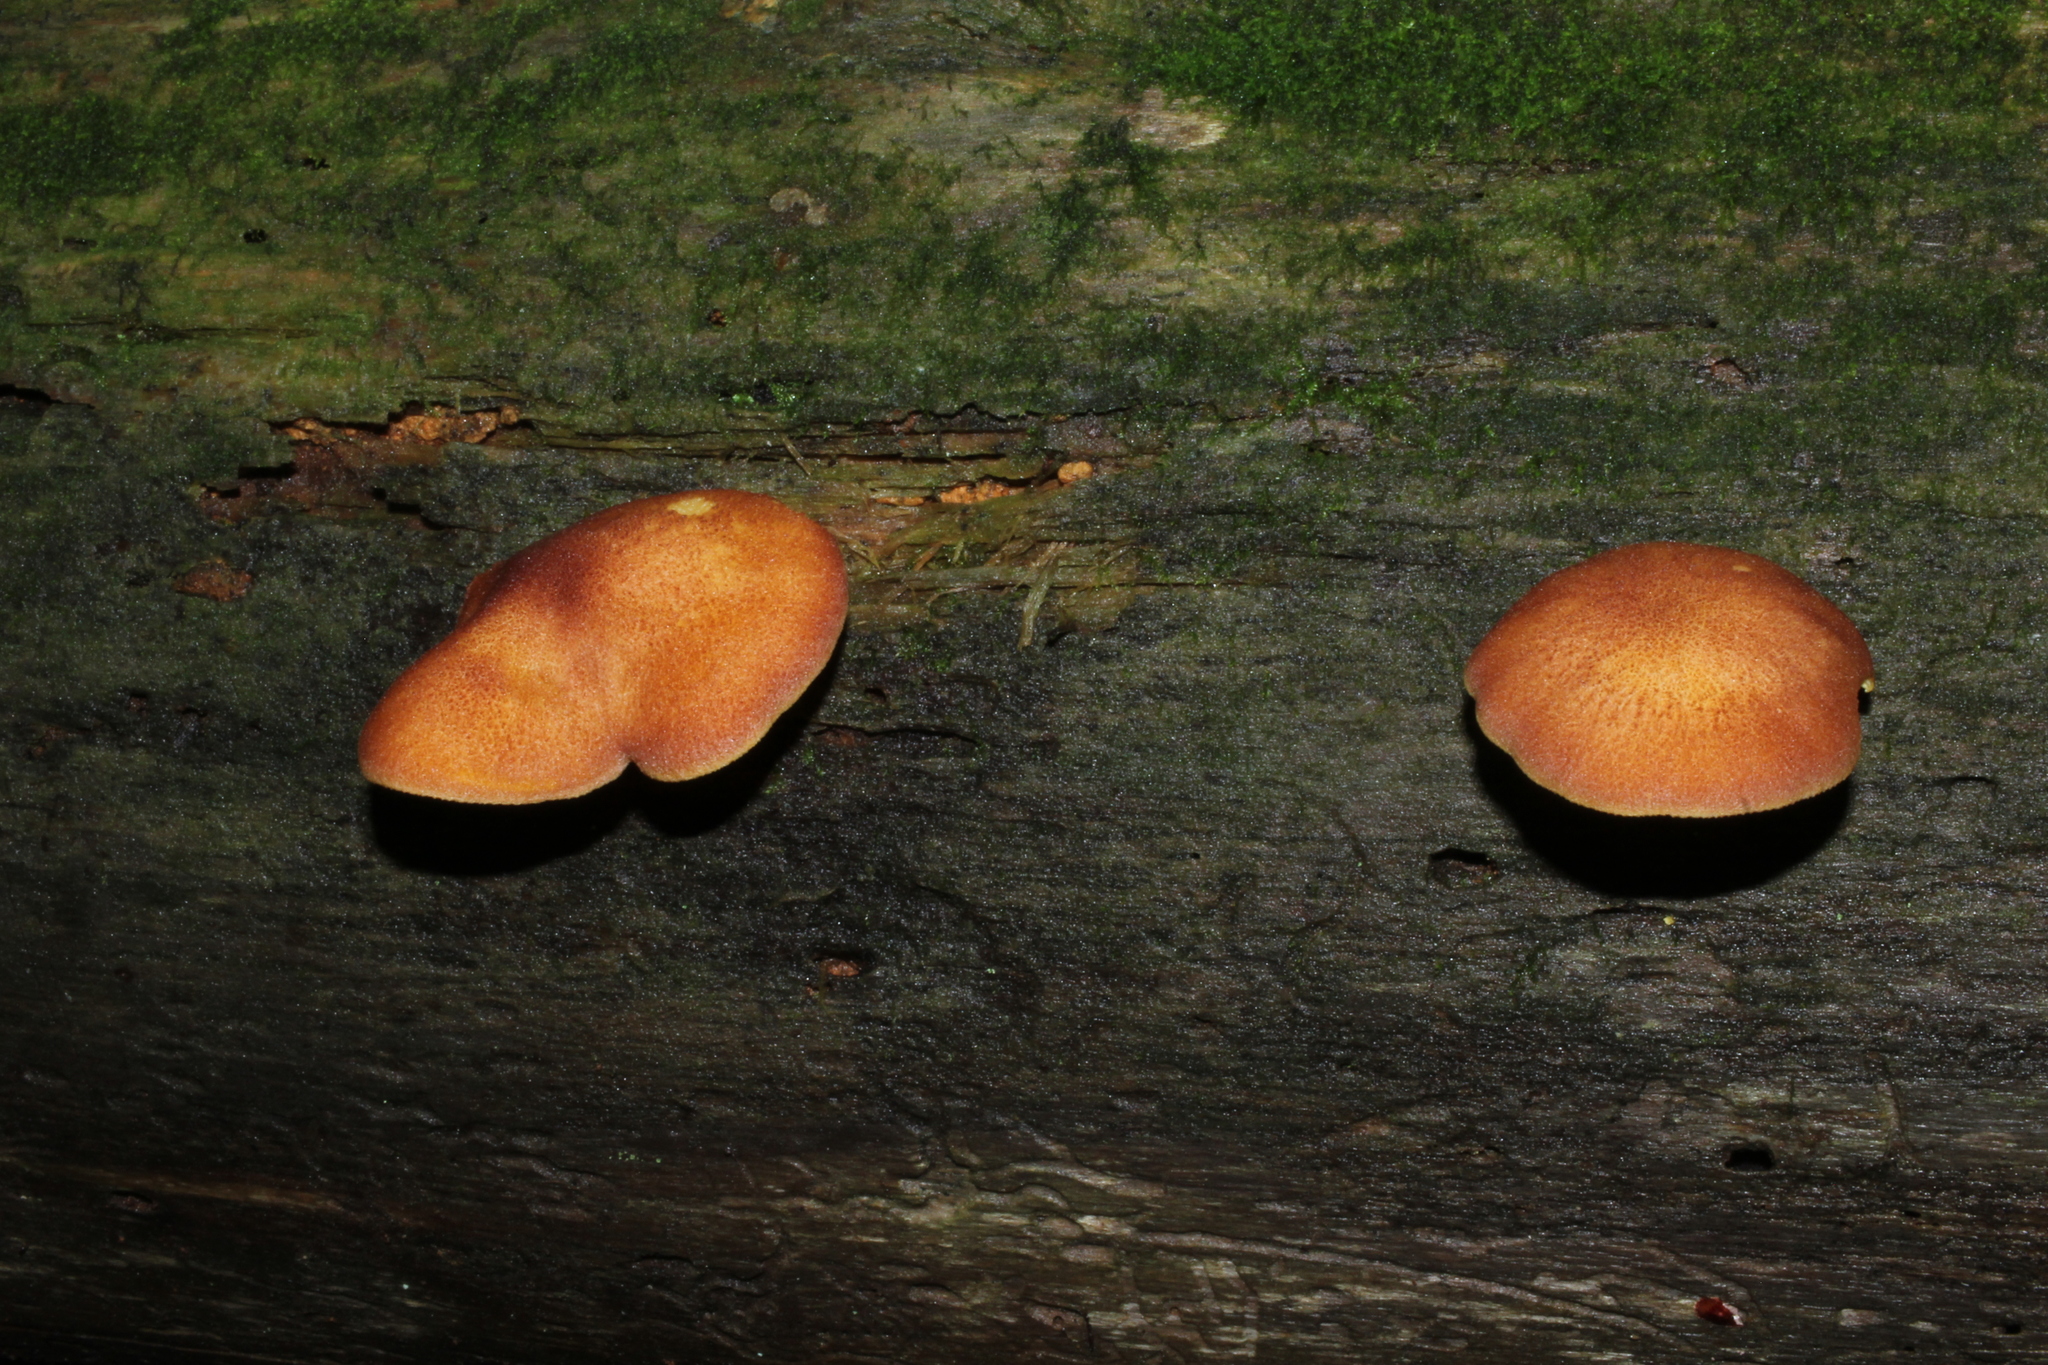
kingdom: Fungi
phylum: Basidiomycota
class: Agaricomycetes
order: Agaricales
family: Tricholomataceae
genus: Tricholomopsis
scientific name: Tricholomopsis rutilans
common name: Plums and custard
